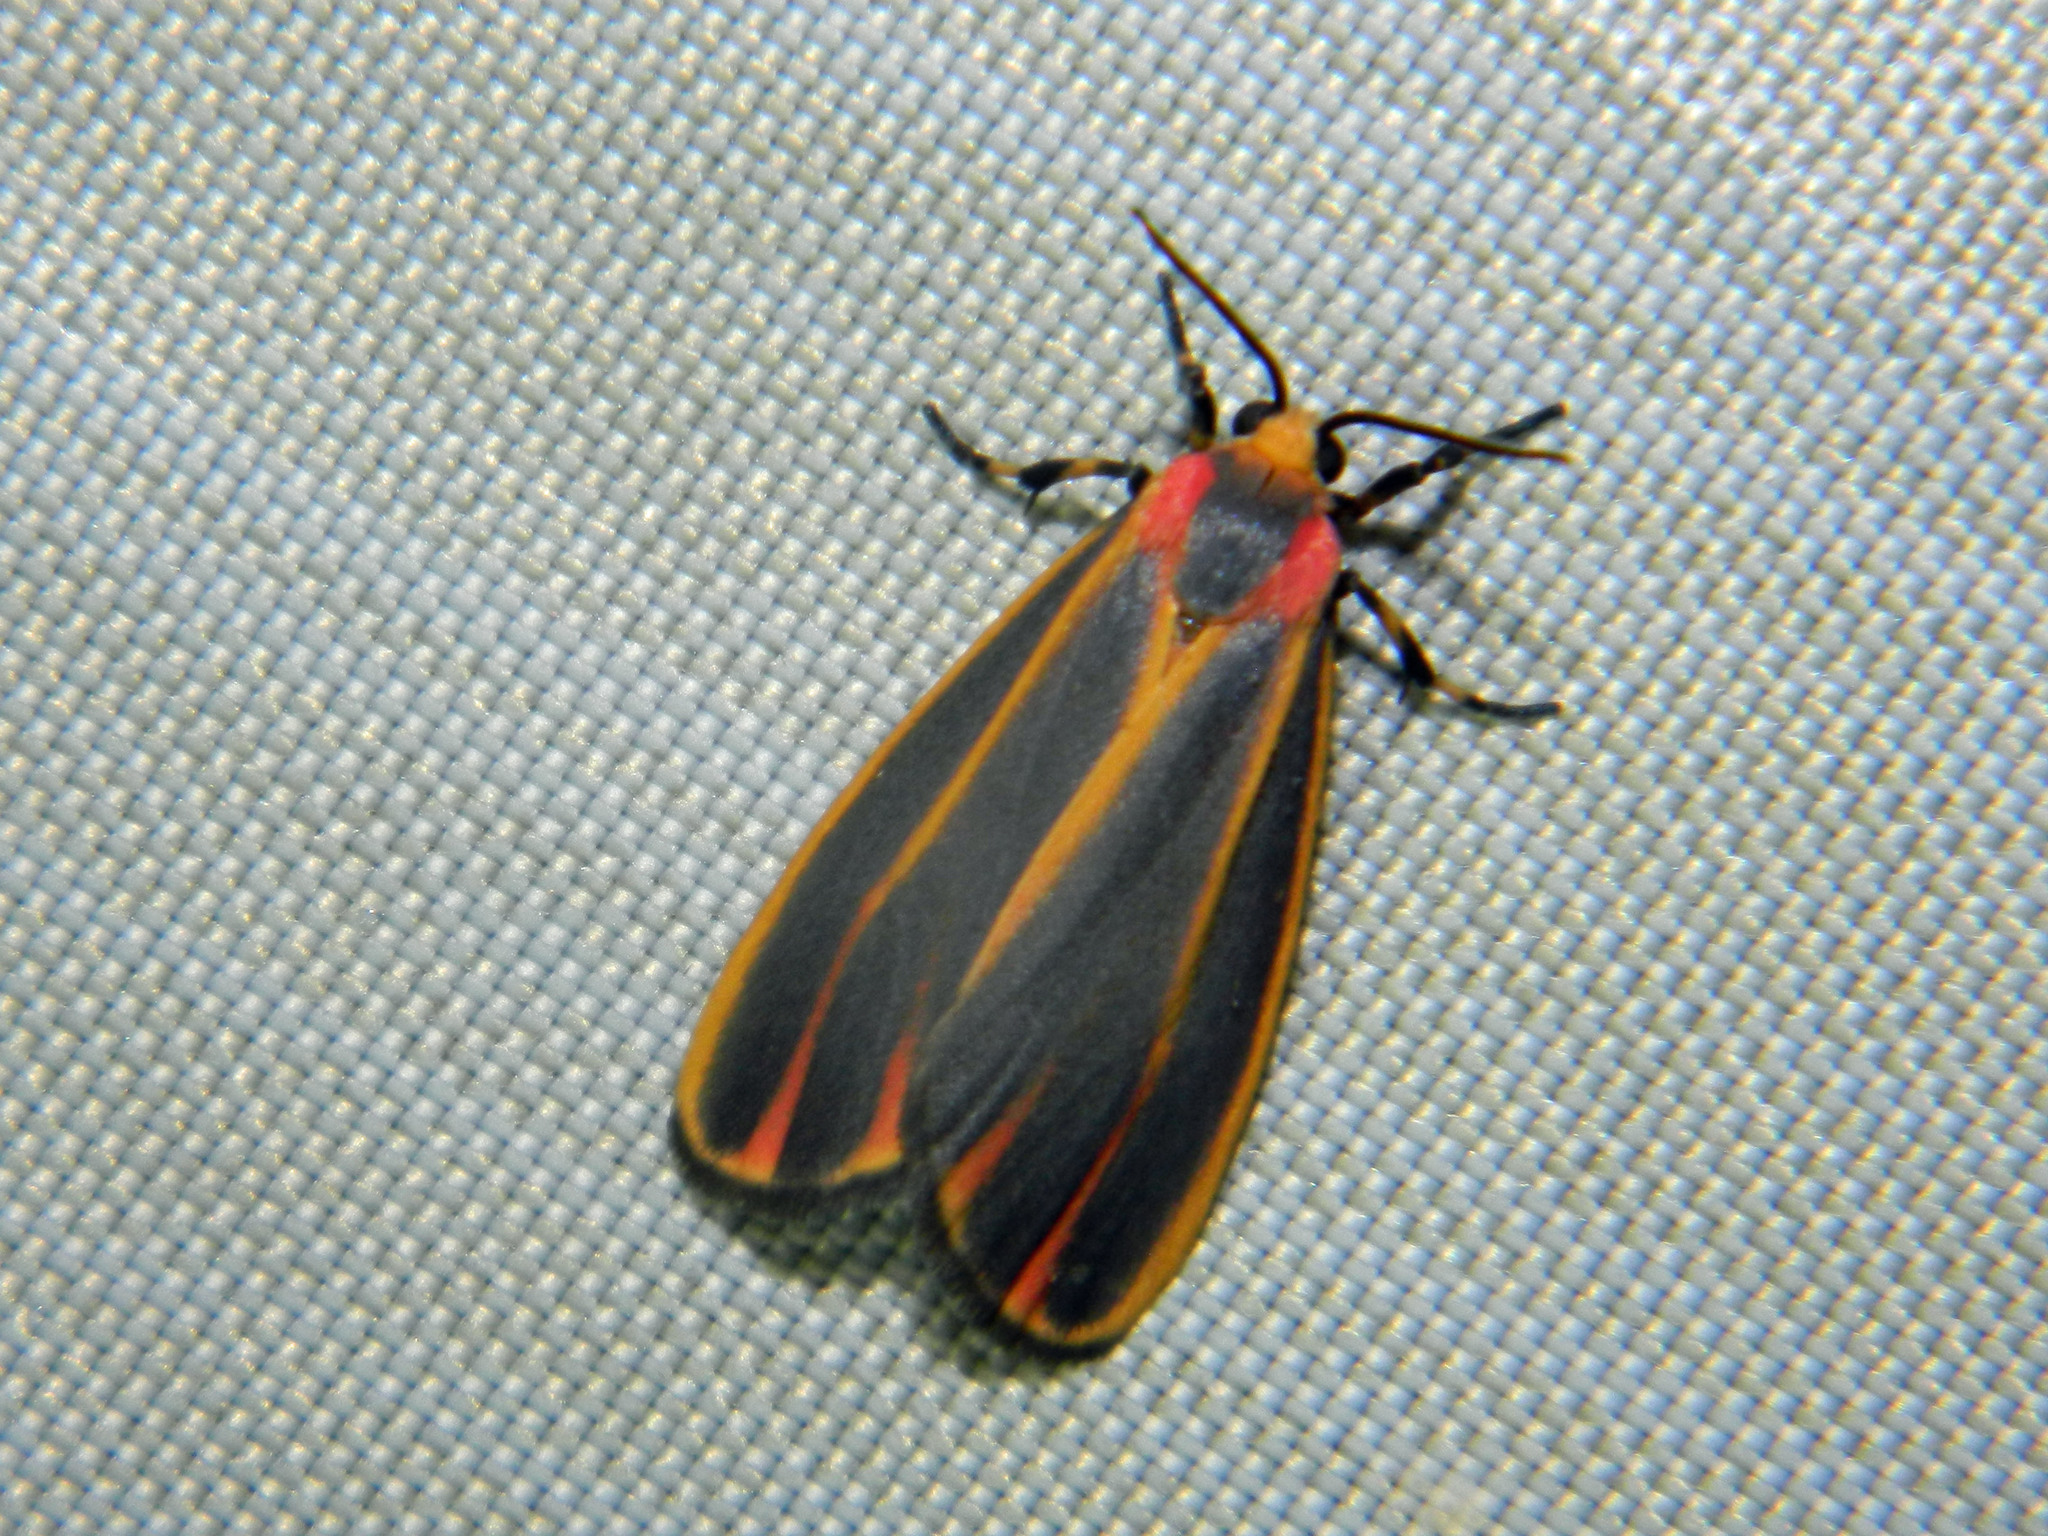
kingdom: Animalia
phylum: Arthropoda
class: Insecta
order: Lepidoptera
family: Erebidae
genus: Hypoprepia
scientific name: Hypoprepia fucosa
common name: Painted lichen moth
